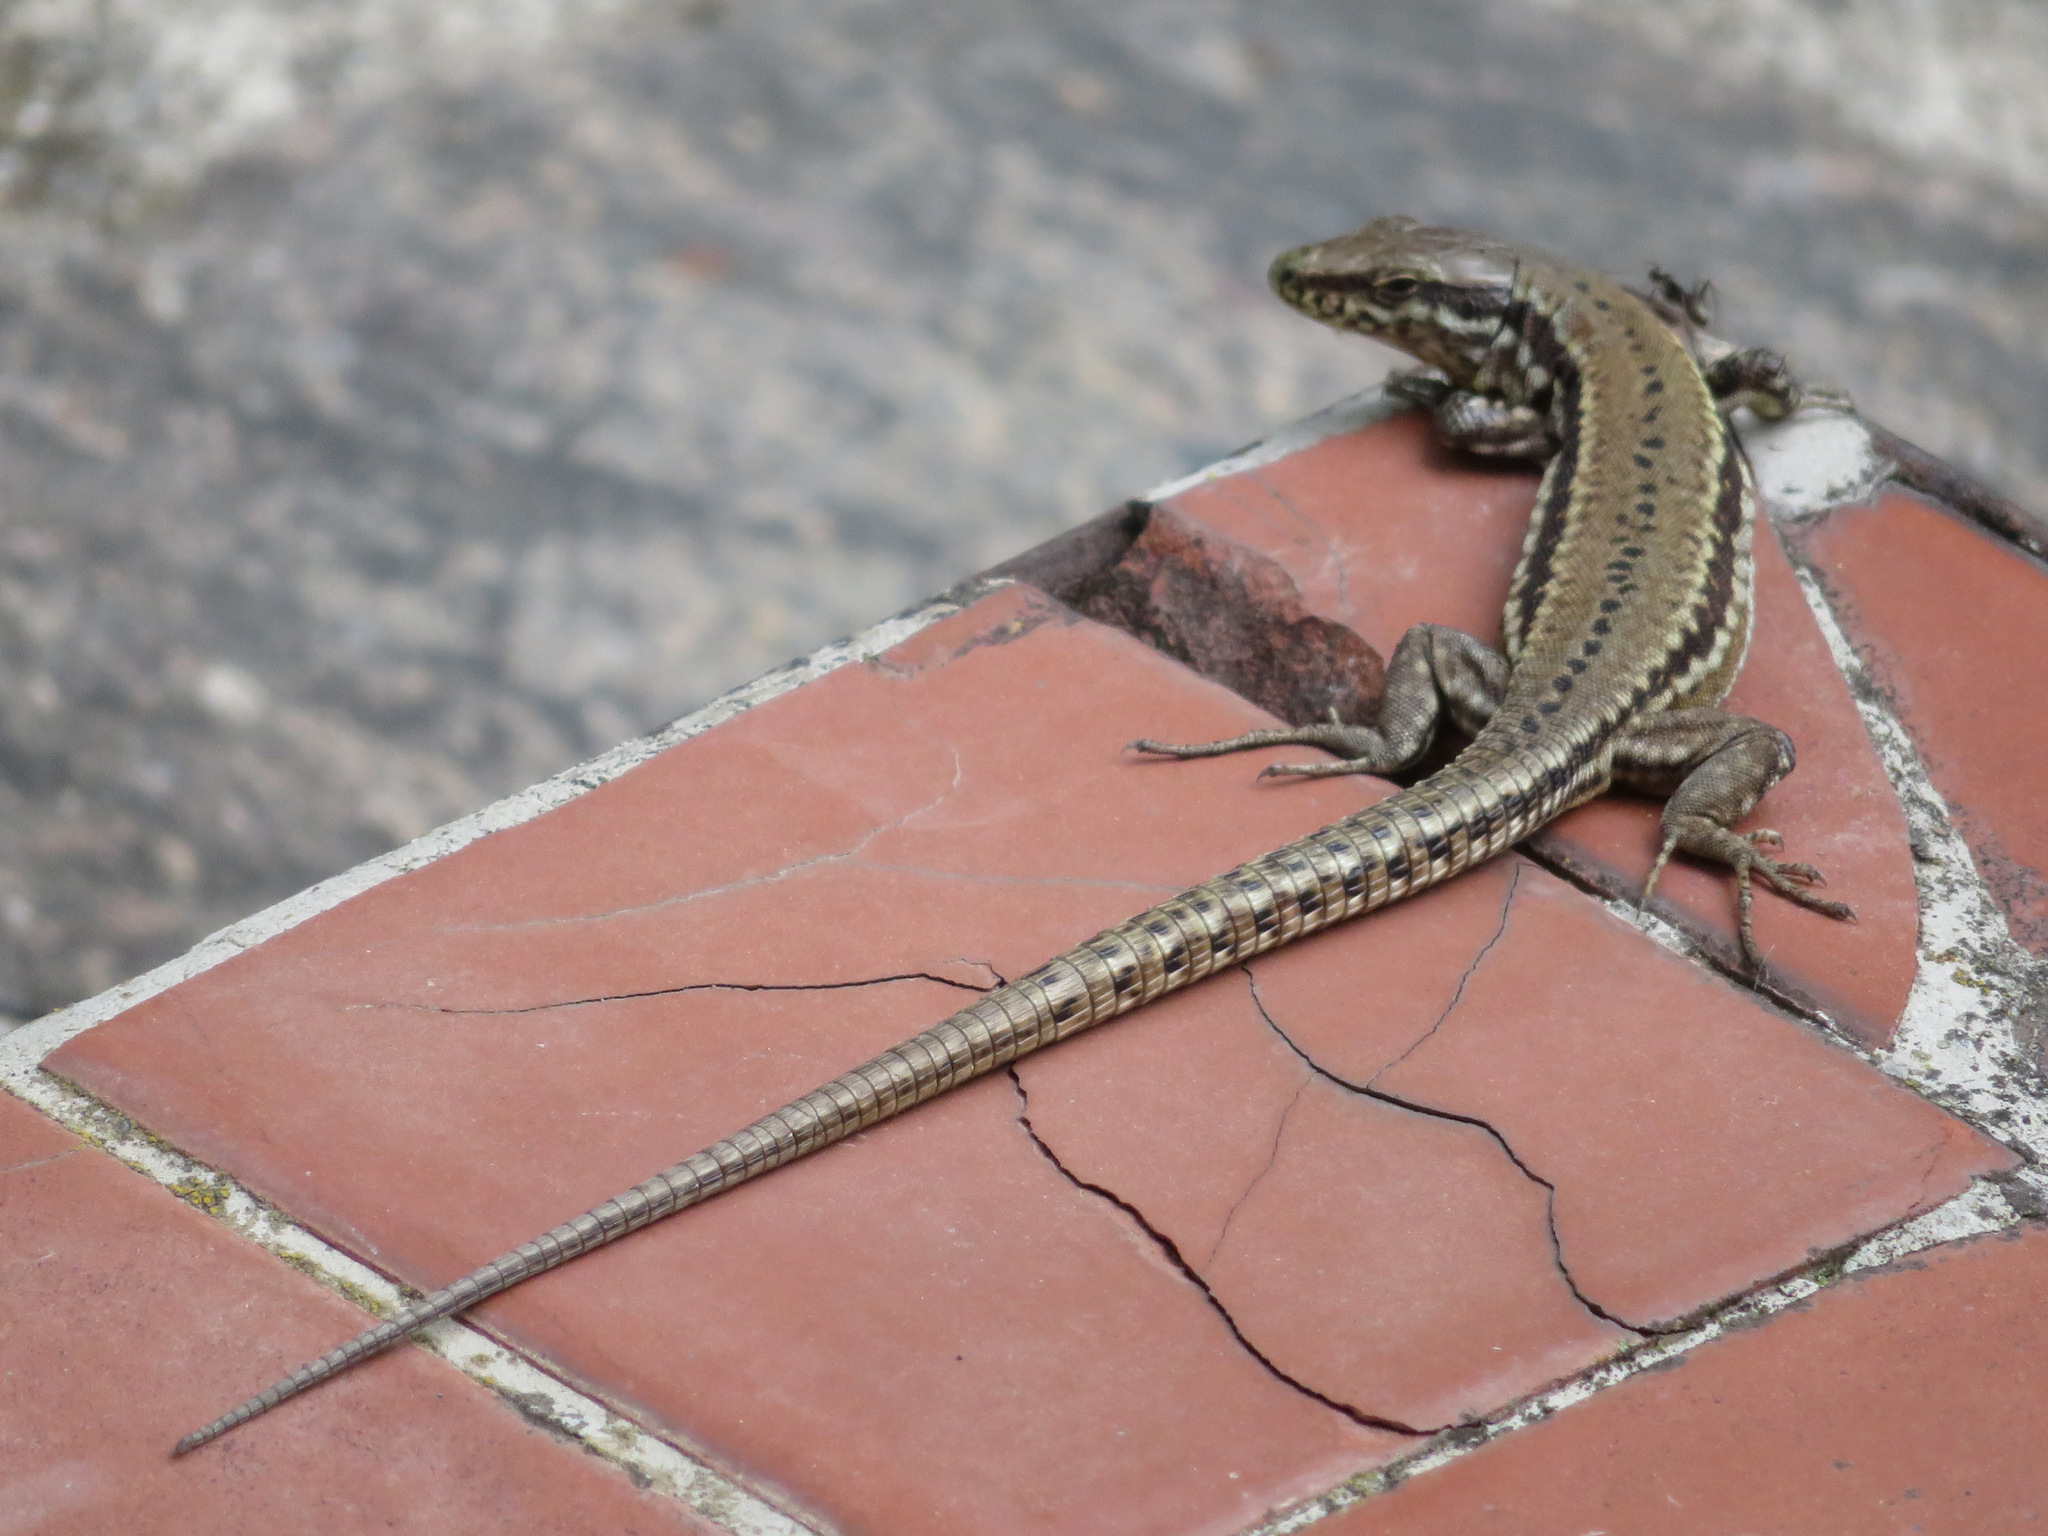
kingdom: Animalia
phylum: Chordata
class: Squamata
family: Lacertidae
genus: Podarcis
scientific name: Podarcis muralis
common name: Common wall lizard
